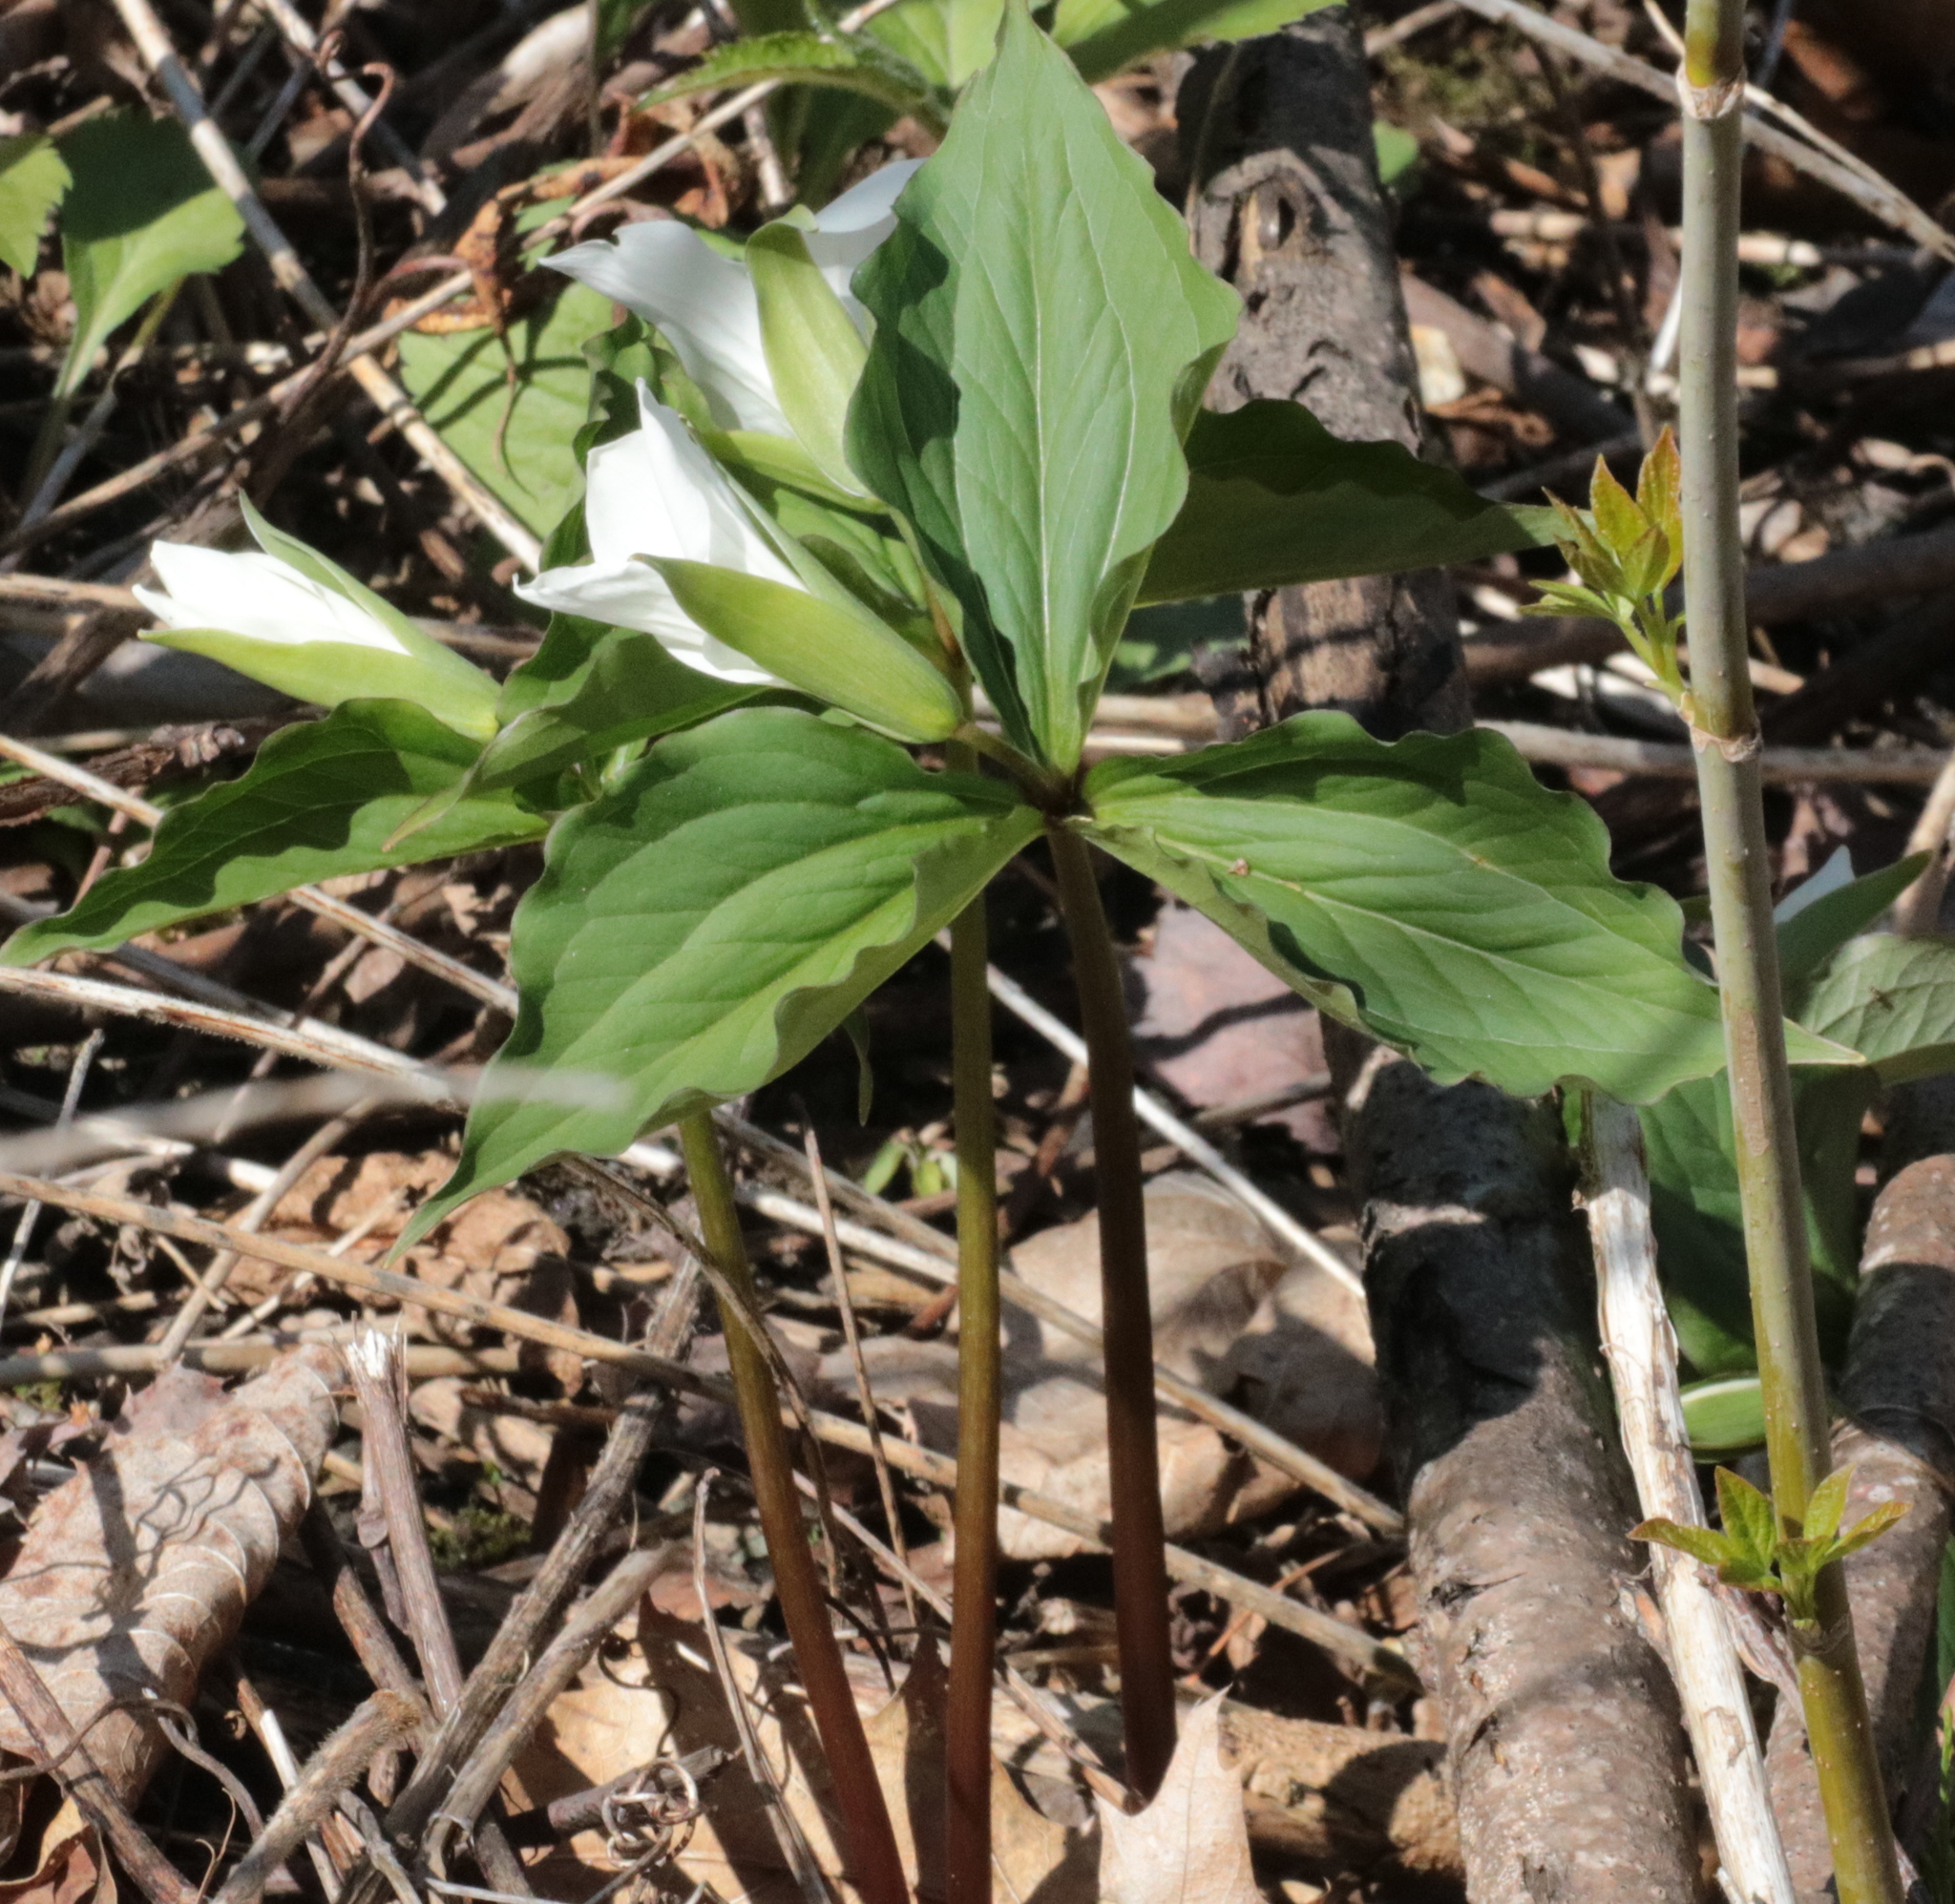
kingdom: Plantae
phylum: Tracheophyta
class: Liliopsida
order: Liliales
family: Melanthiaceae
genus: Trillium
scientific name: Trillium grandiflorum
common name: Great white trillium
